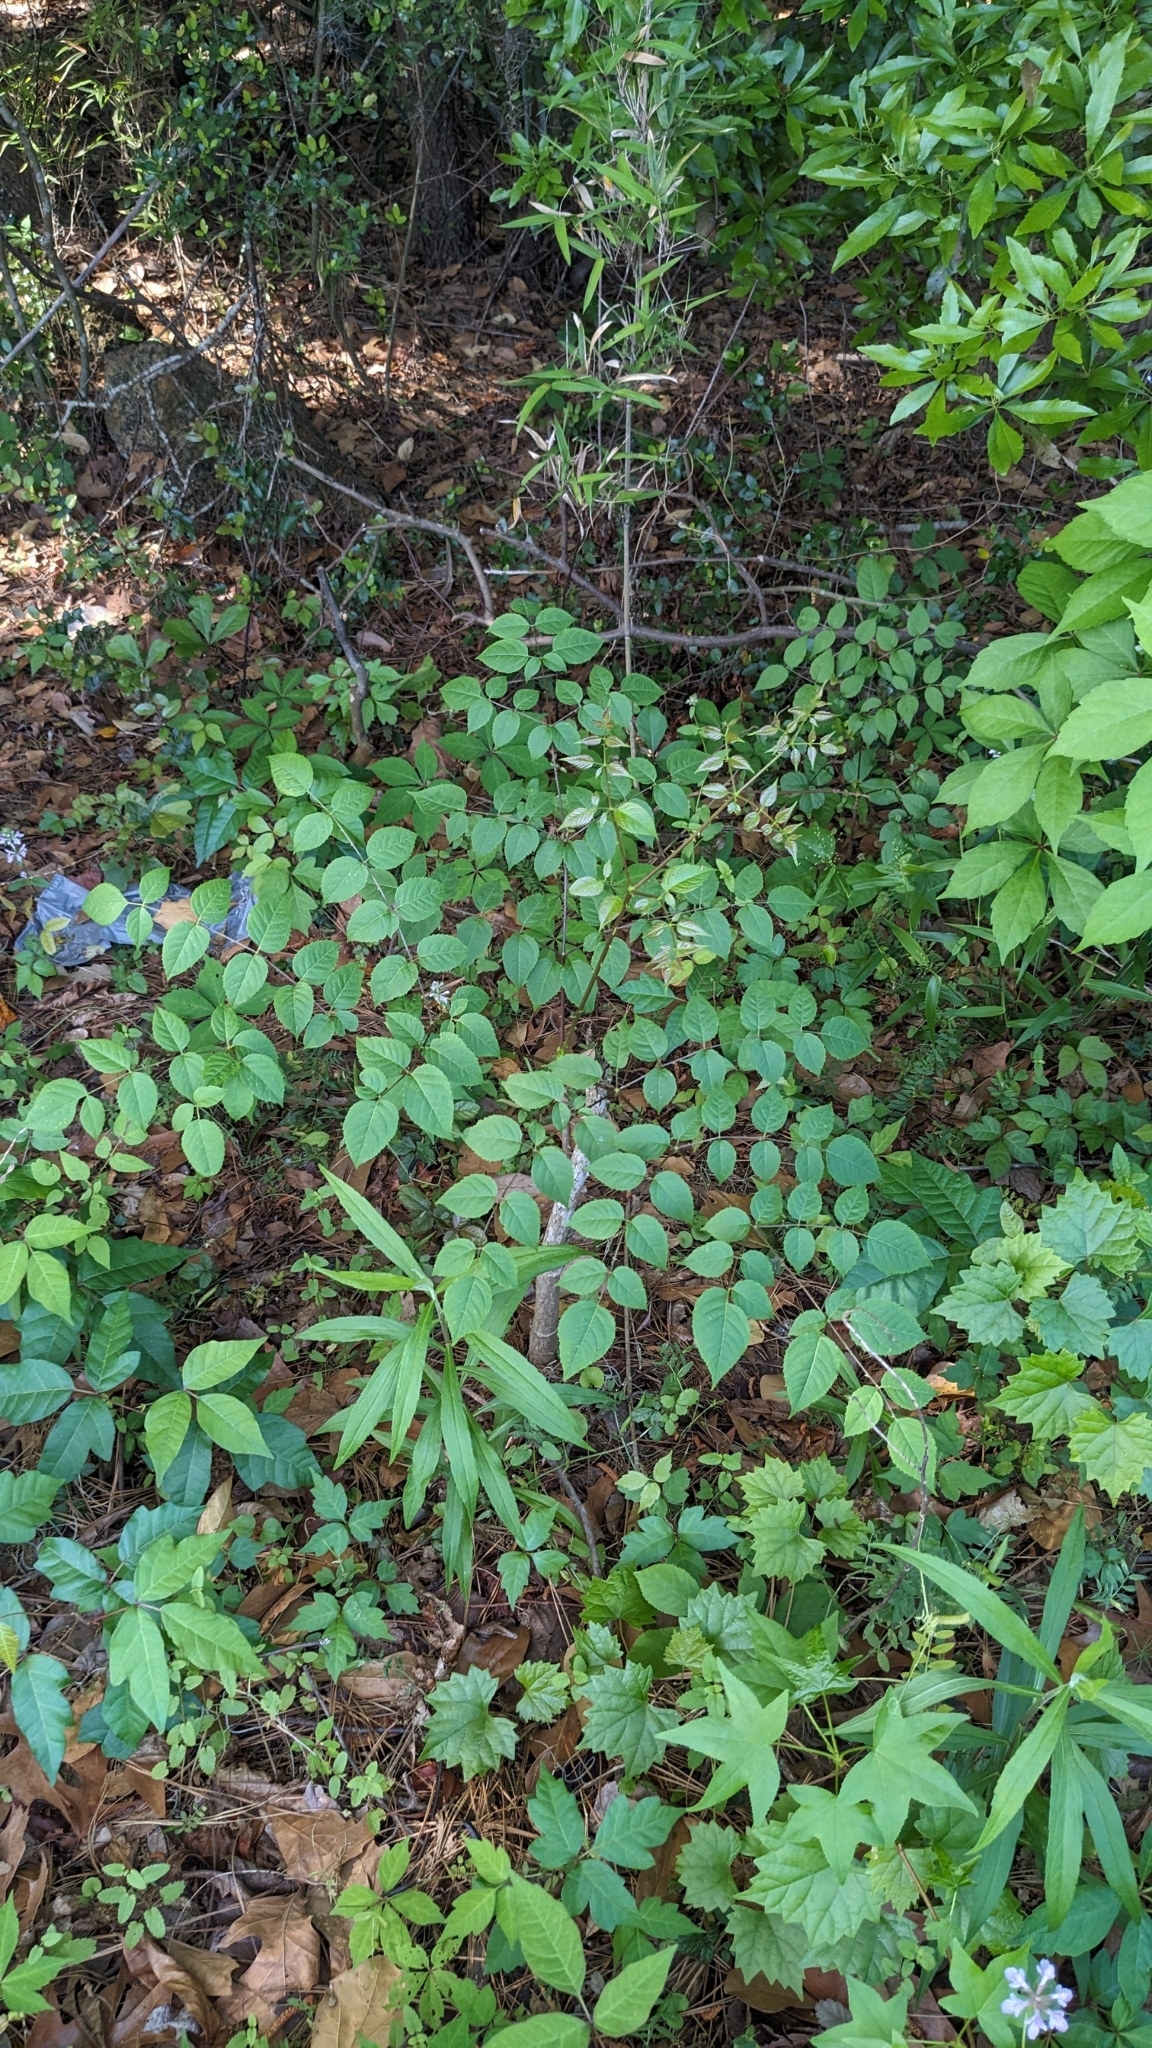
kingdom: Plantae
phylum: Tracheophyta
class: Magnoliopsida
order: Apiales
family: Araliaceae
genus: Aralia
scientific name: Aralia spinosa
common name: Hercules'-club
